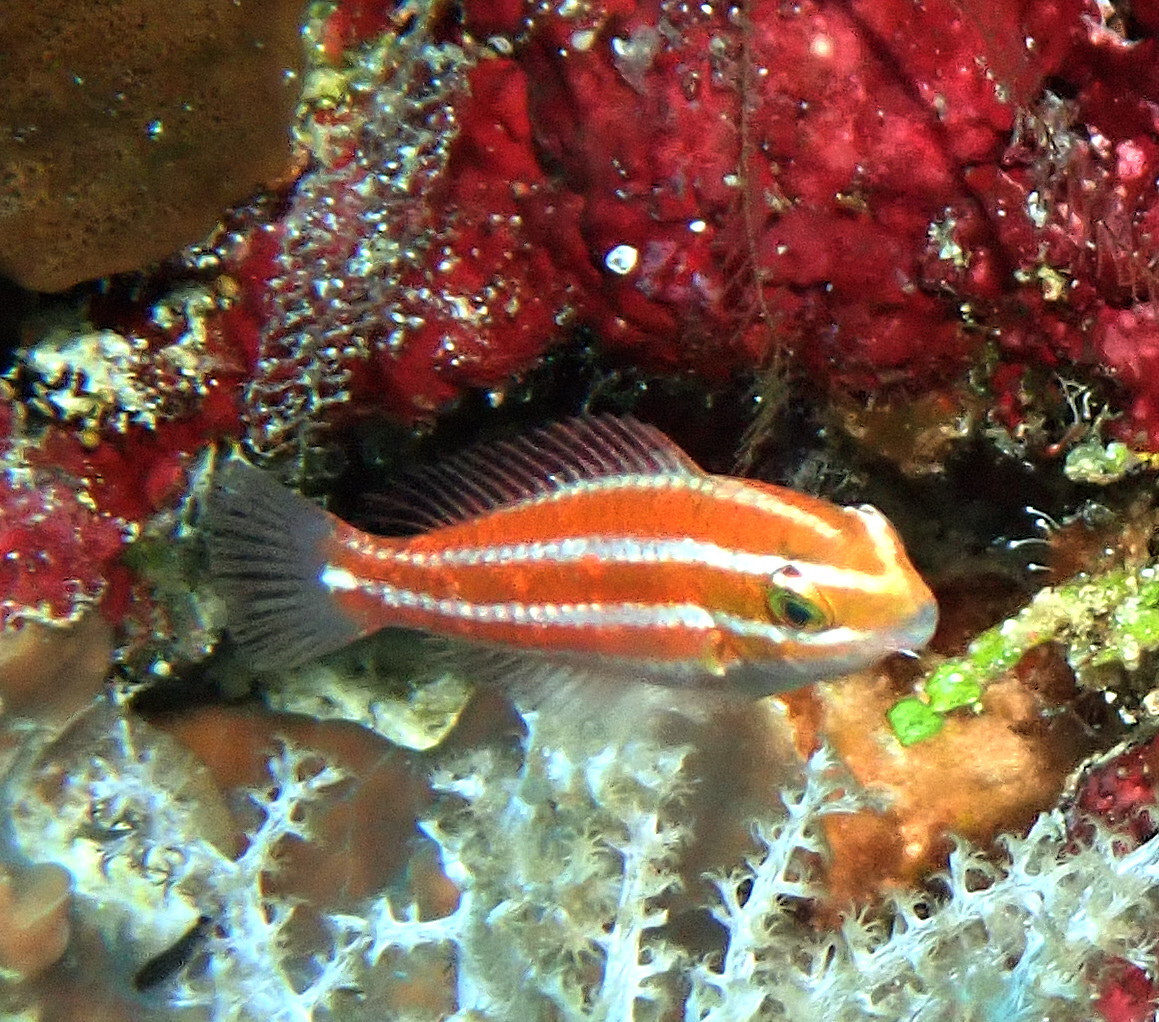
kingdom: Animalia
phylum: Chordata
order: Perciformes
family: Scaridae
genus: Chlorurus
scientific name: Chlorurus spilurus
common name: Bullethead parrotfish
